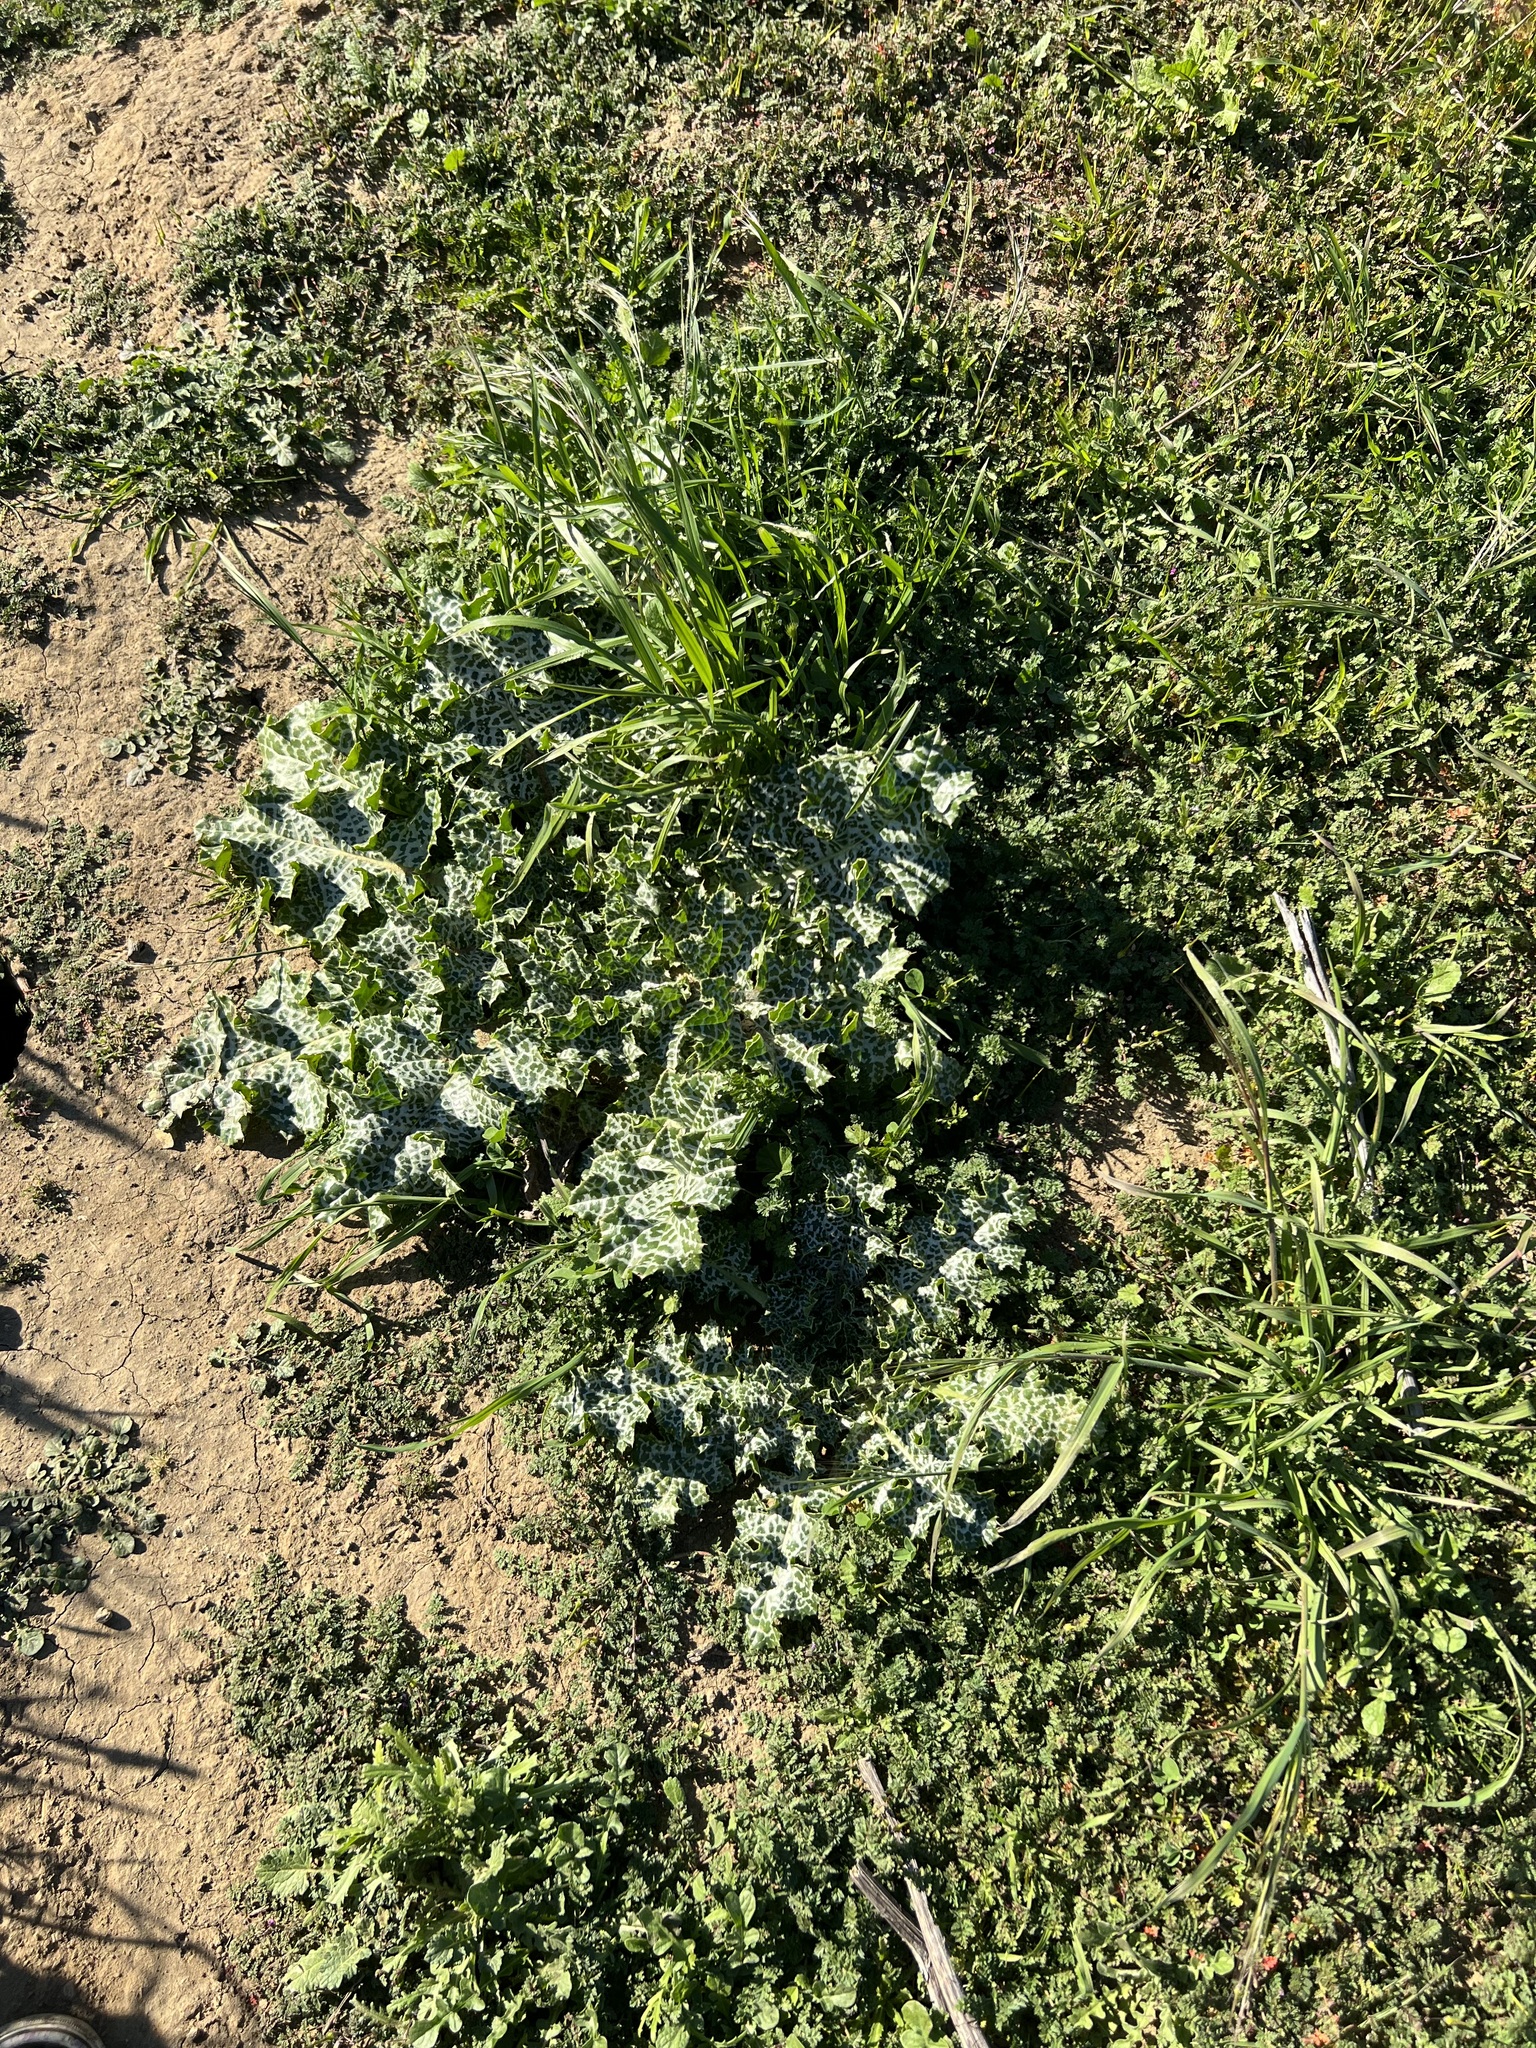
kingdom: Plantae
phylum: Tracheophyta
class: Magnoliopsida
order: Asterales
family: Asteraceae
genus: Silybum
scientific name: Silybum marianum
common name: Milk thistle
